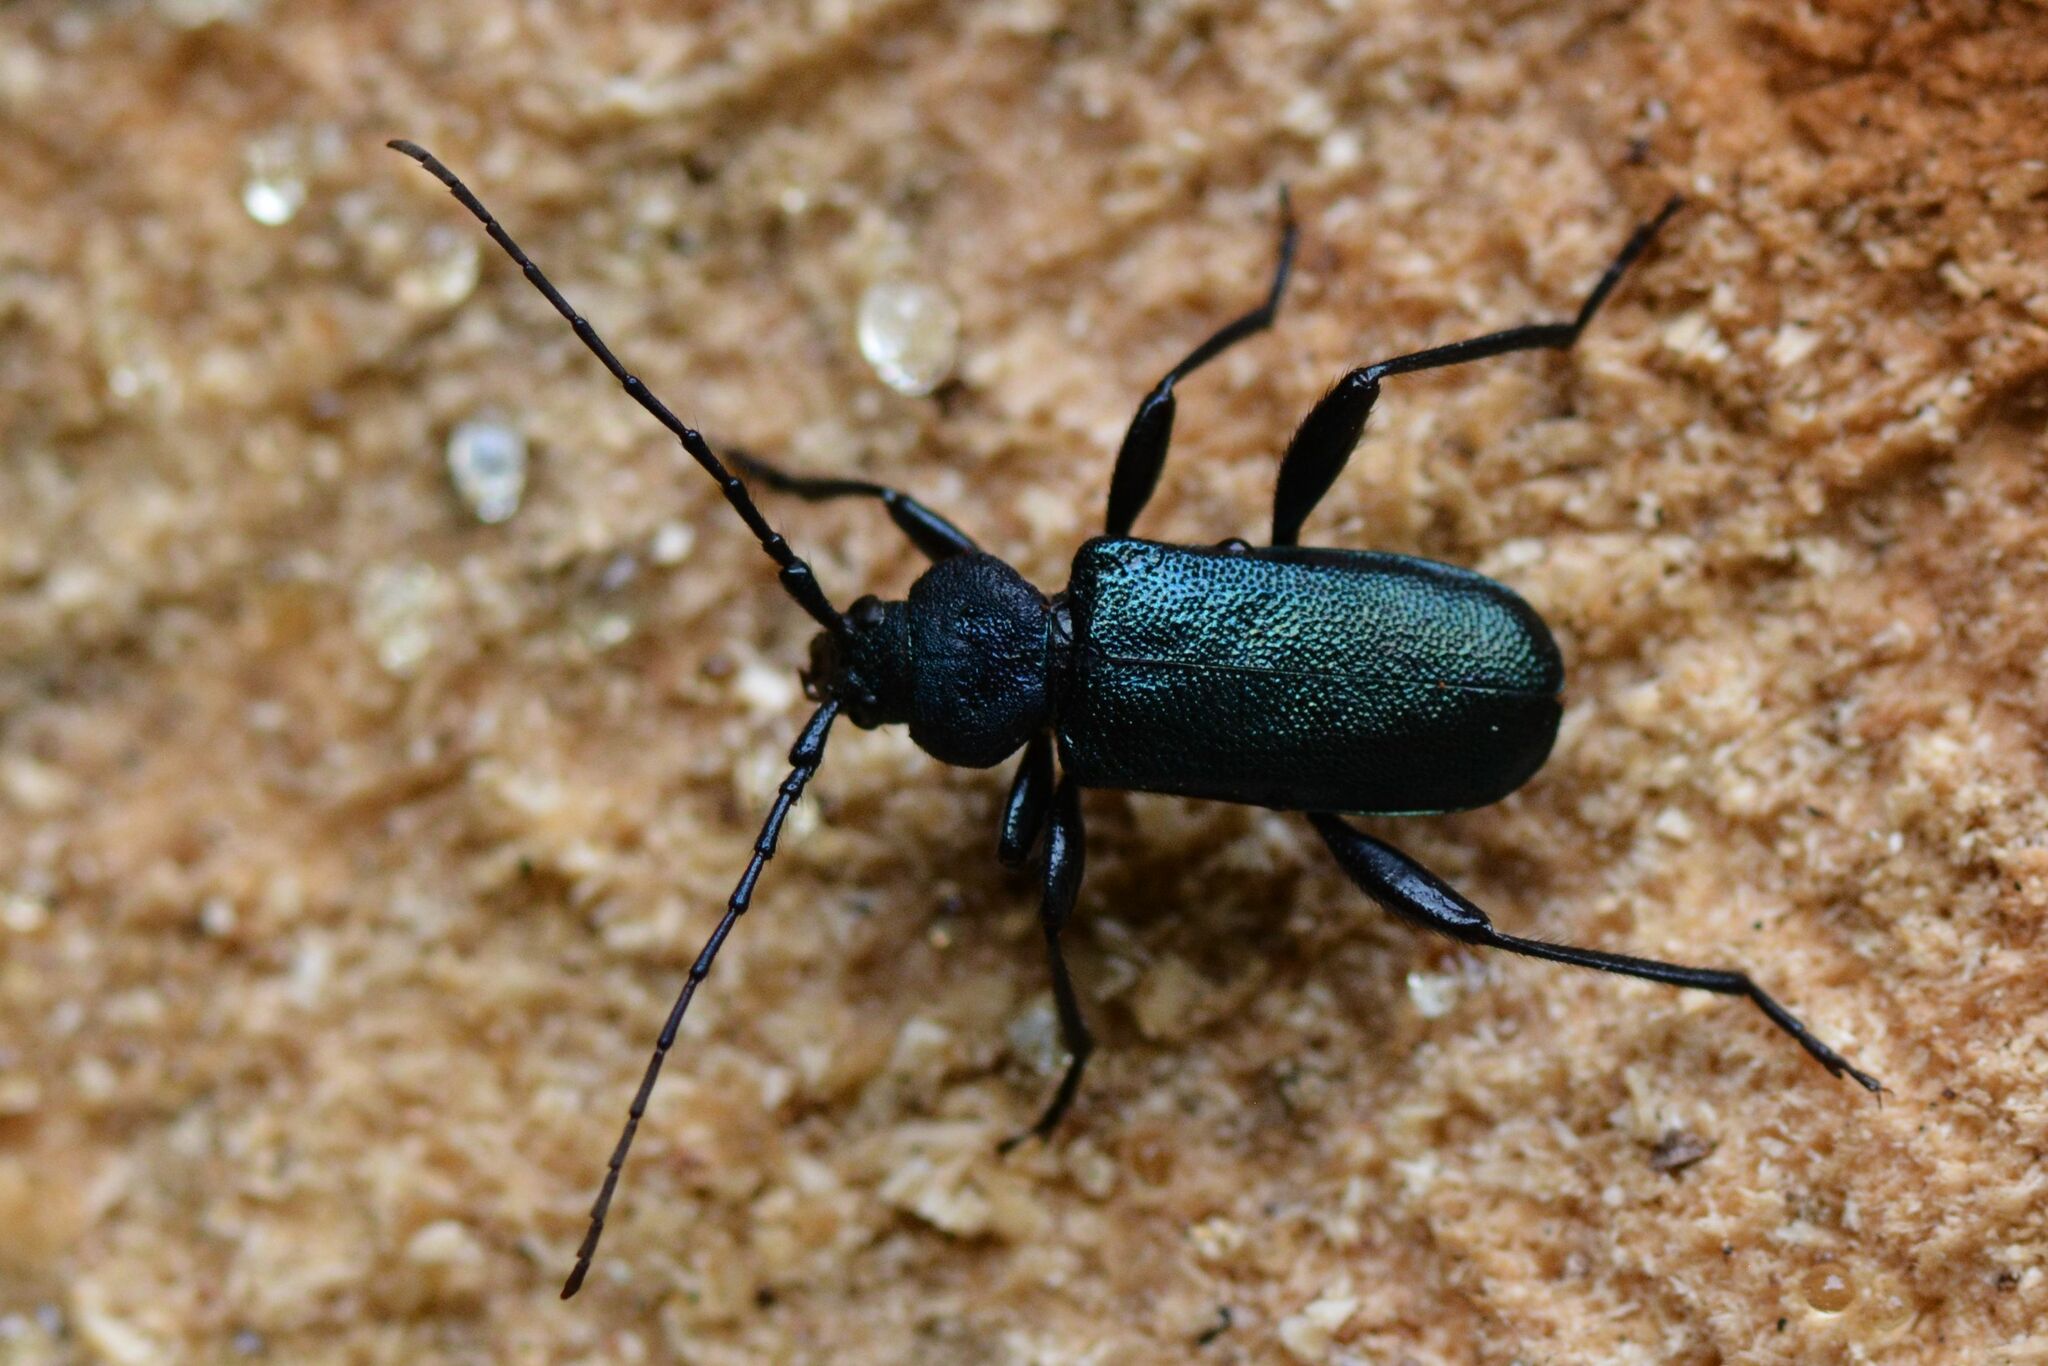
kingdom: Animalia
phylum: Arthropoda
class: Insecta
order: Coleoptera
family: Cerambycidae
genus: Callidium
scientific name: Callidium violaceum
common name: Violet tanbark beetle
